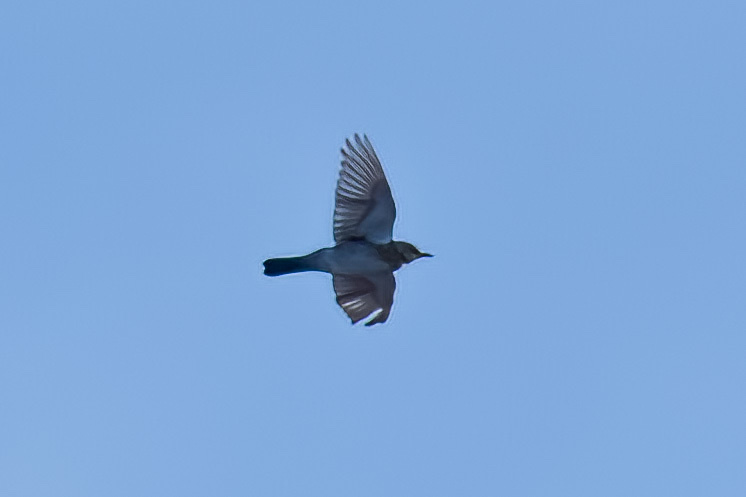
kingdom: Animalia
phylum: Chordata
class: Aves
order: Passeriformes
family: Turdidae
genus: Turdus
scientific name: Turdus pilaris
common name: Fieldfare
